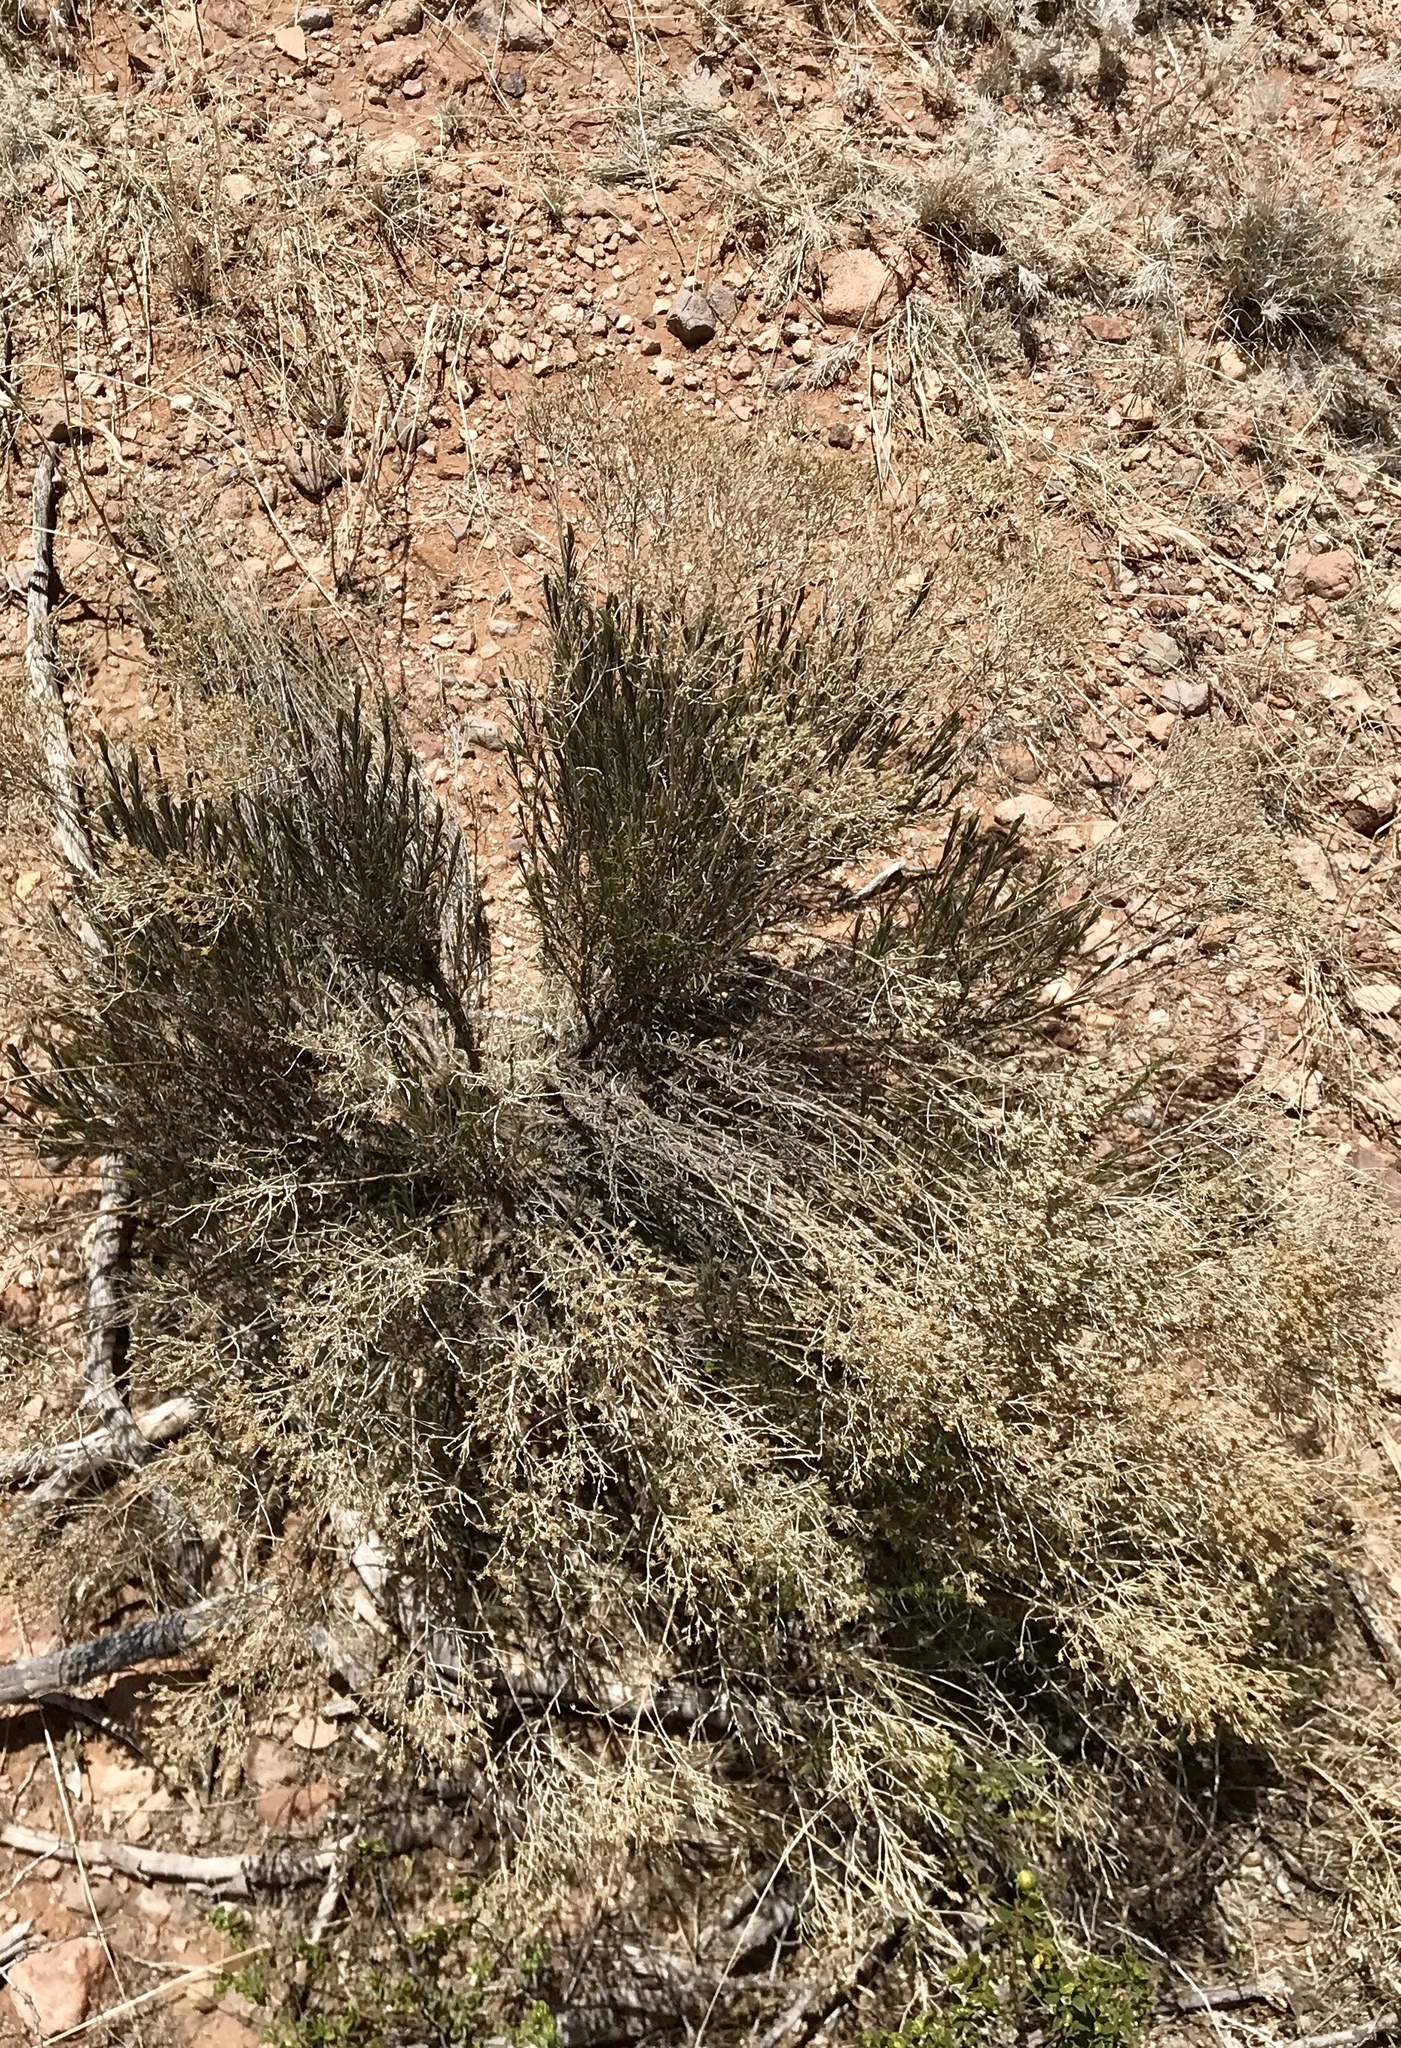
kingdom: Plantae
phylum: Tracheophyta
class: Magnoliopsida
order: Asterales
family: Asteraceae
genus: Gutierrezia
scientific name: Gutierrezia sarothrae
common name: Broom snakeweed
